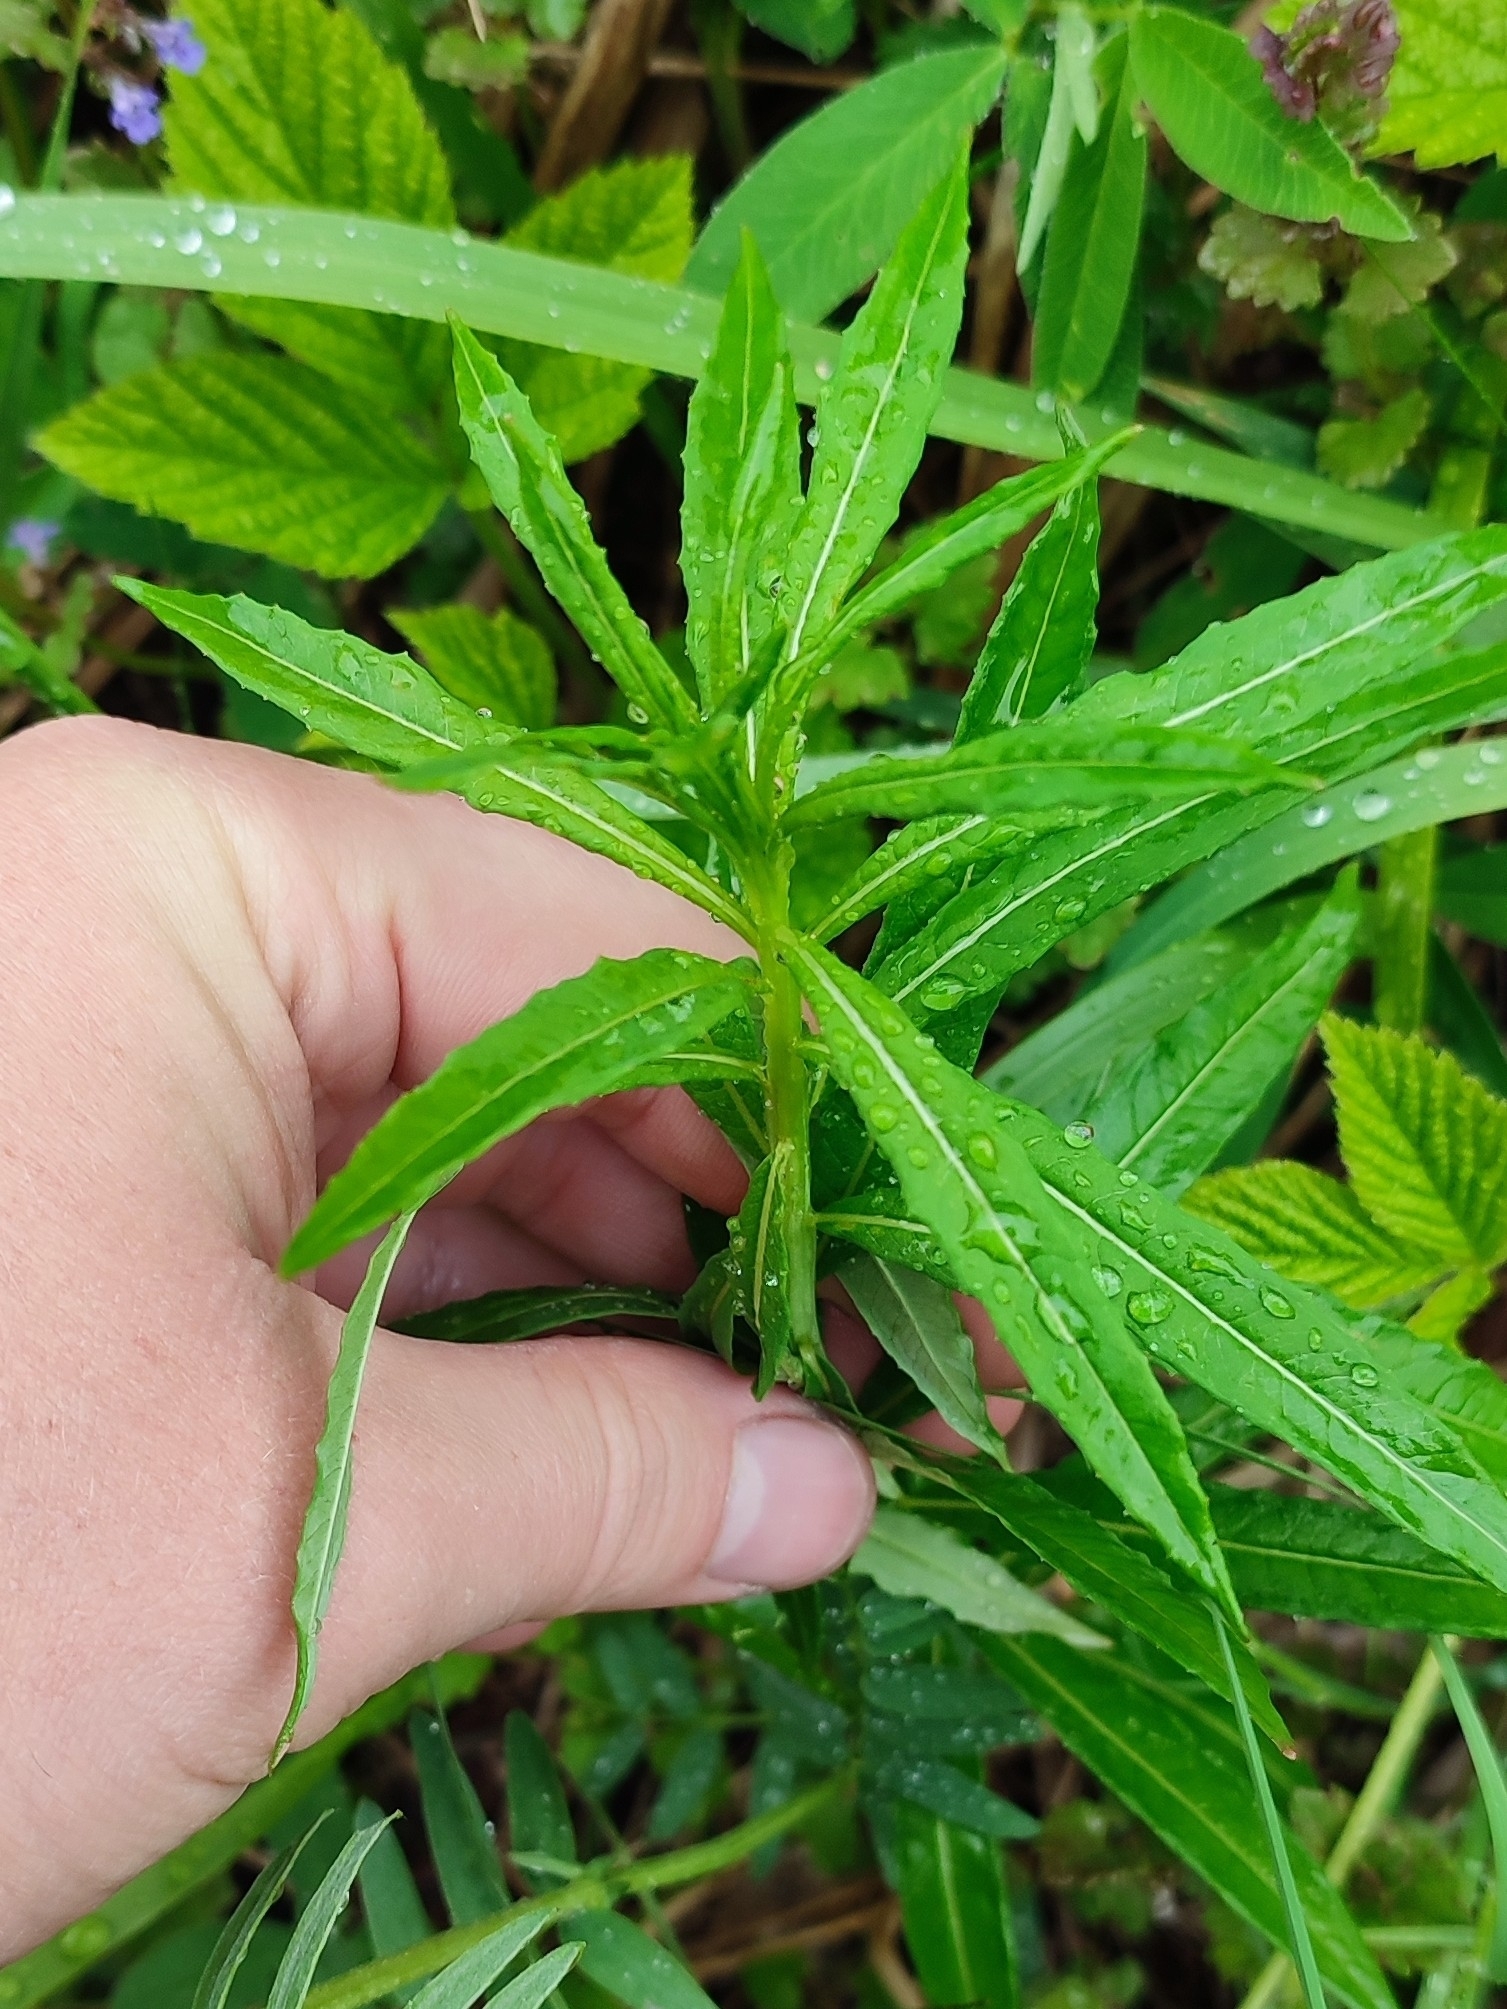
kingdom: Plantae
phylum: Tracheophyta
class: Magnoliopsida
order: Myrtales
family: Onagraceae
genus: Chamaenerion
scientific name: Chamaenerion angustifolium
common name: Fireweed
